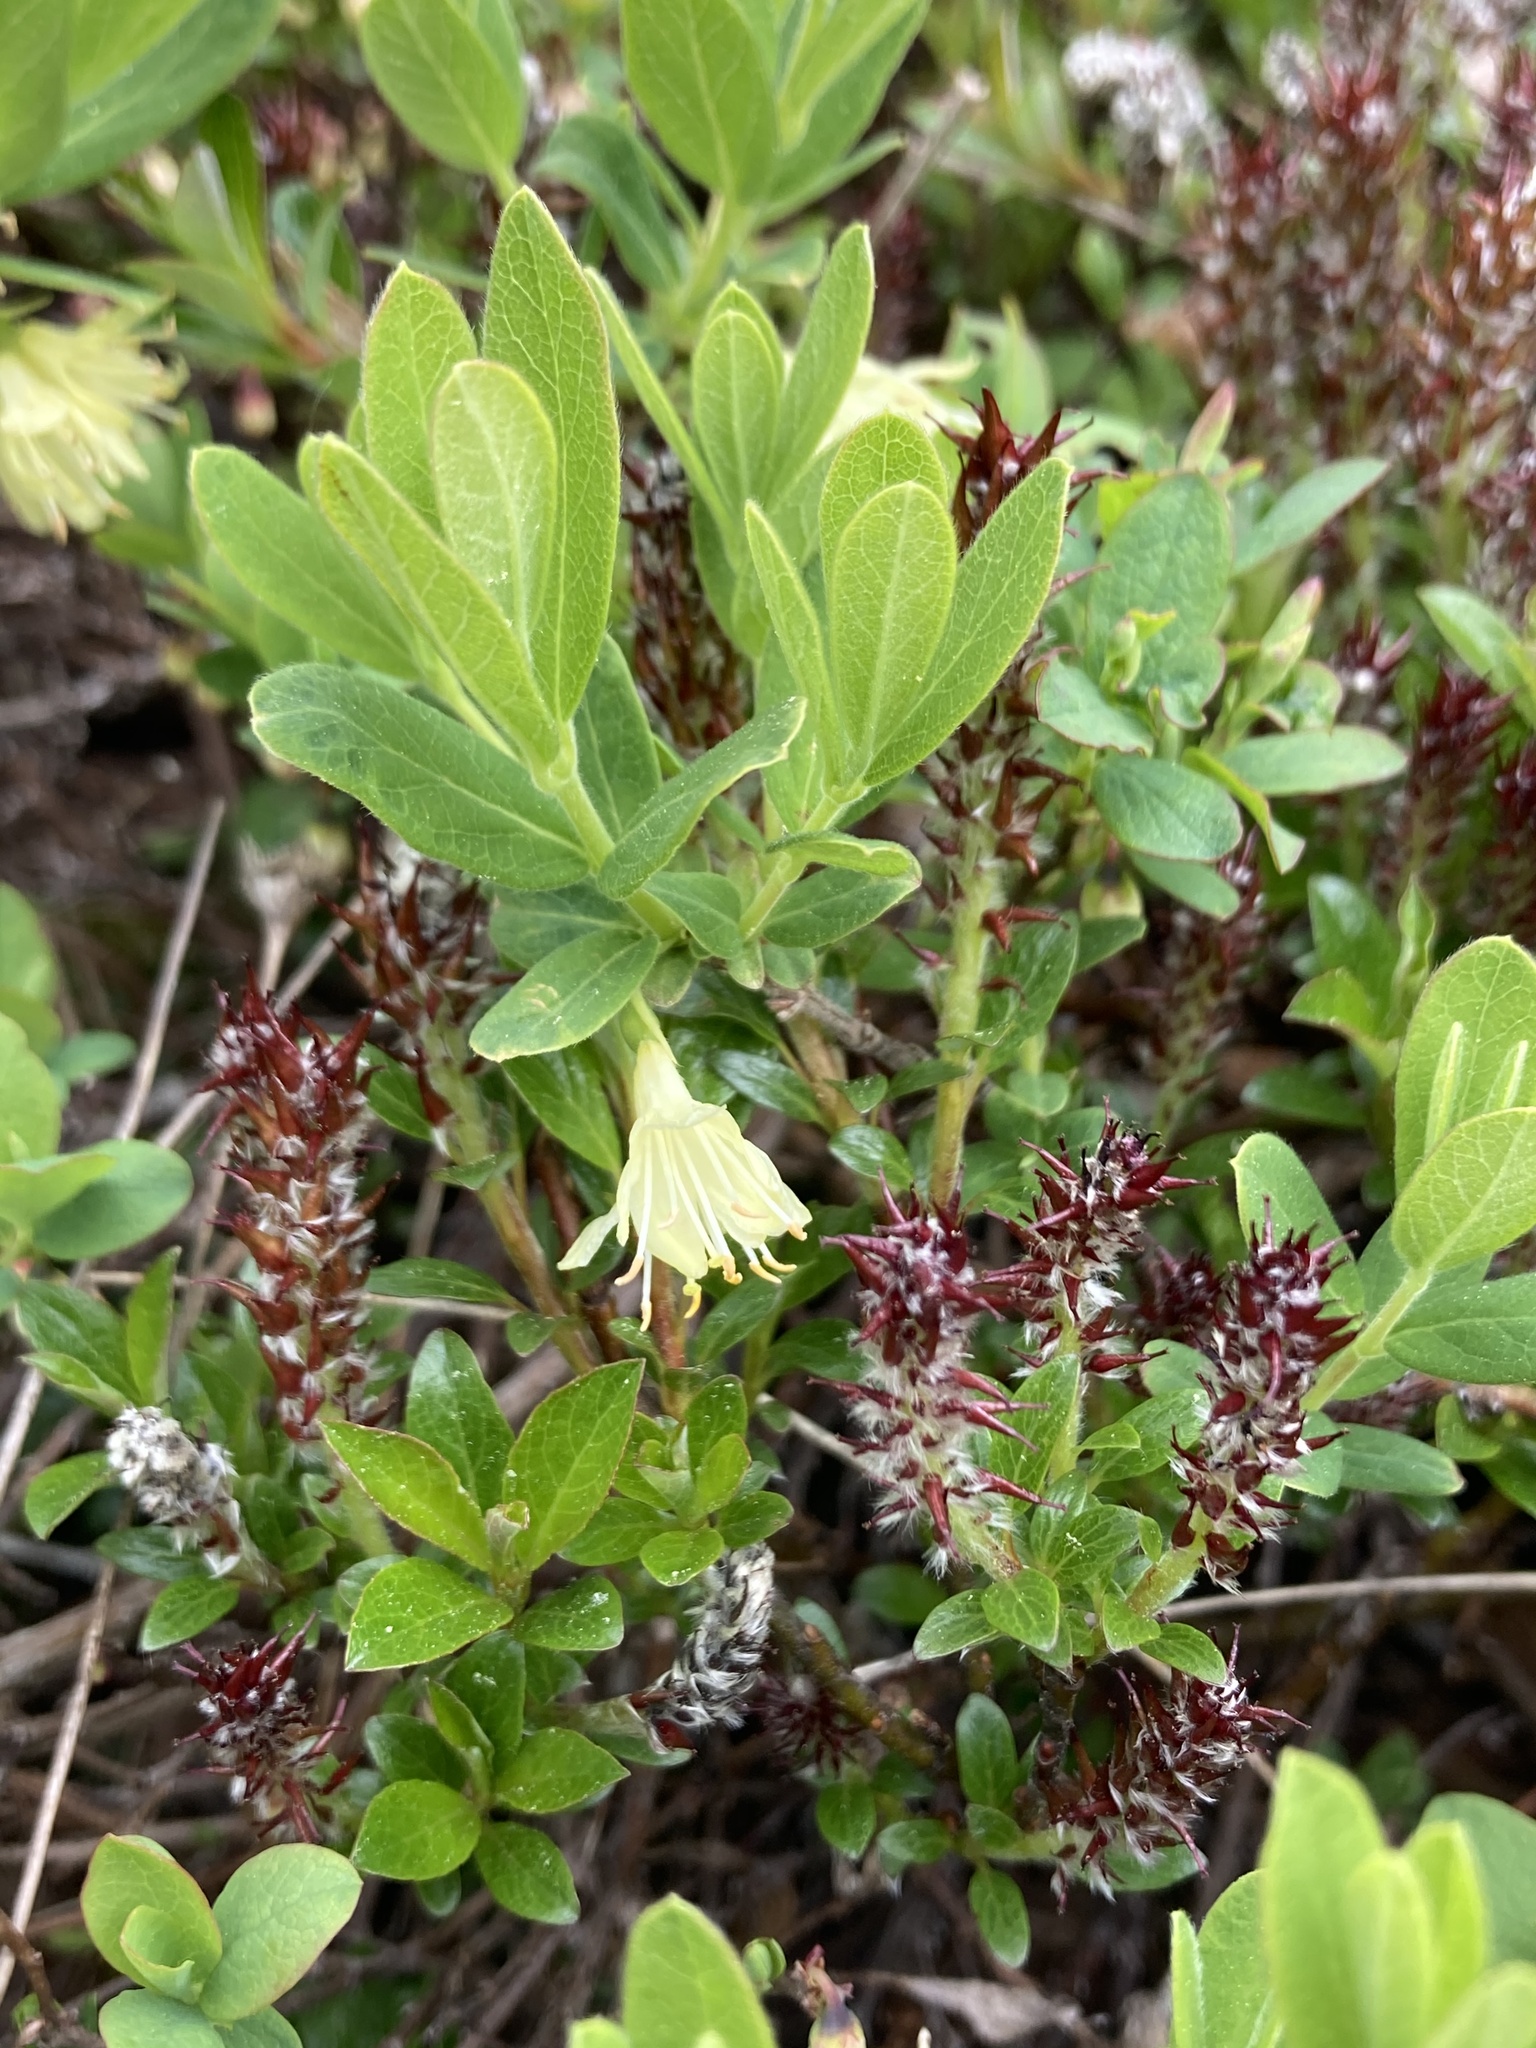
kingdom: Plantae
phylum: Tracheophyta
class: Magnoliopsida
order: Dipsacales
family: Caprifoliaceae
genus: Lonicera
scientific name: Lonicera villosa
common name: Mountain fly-honeysuckle
